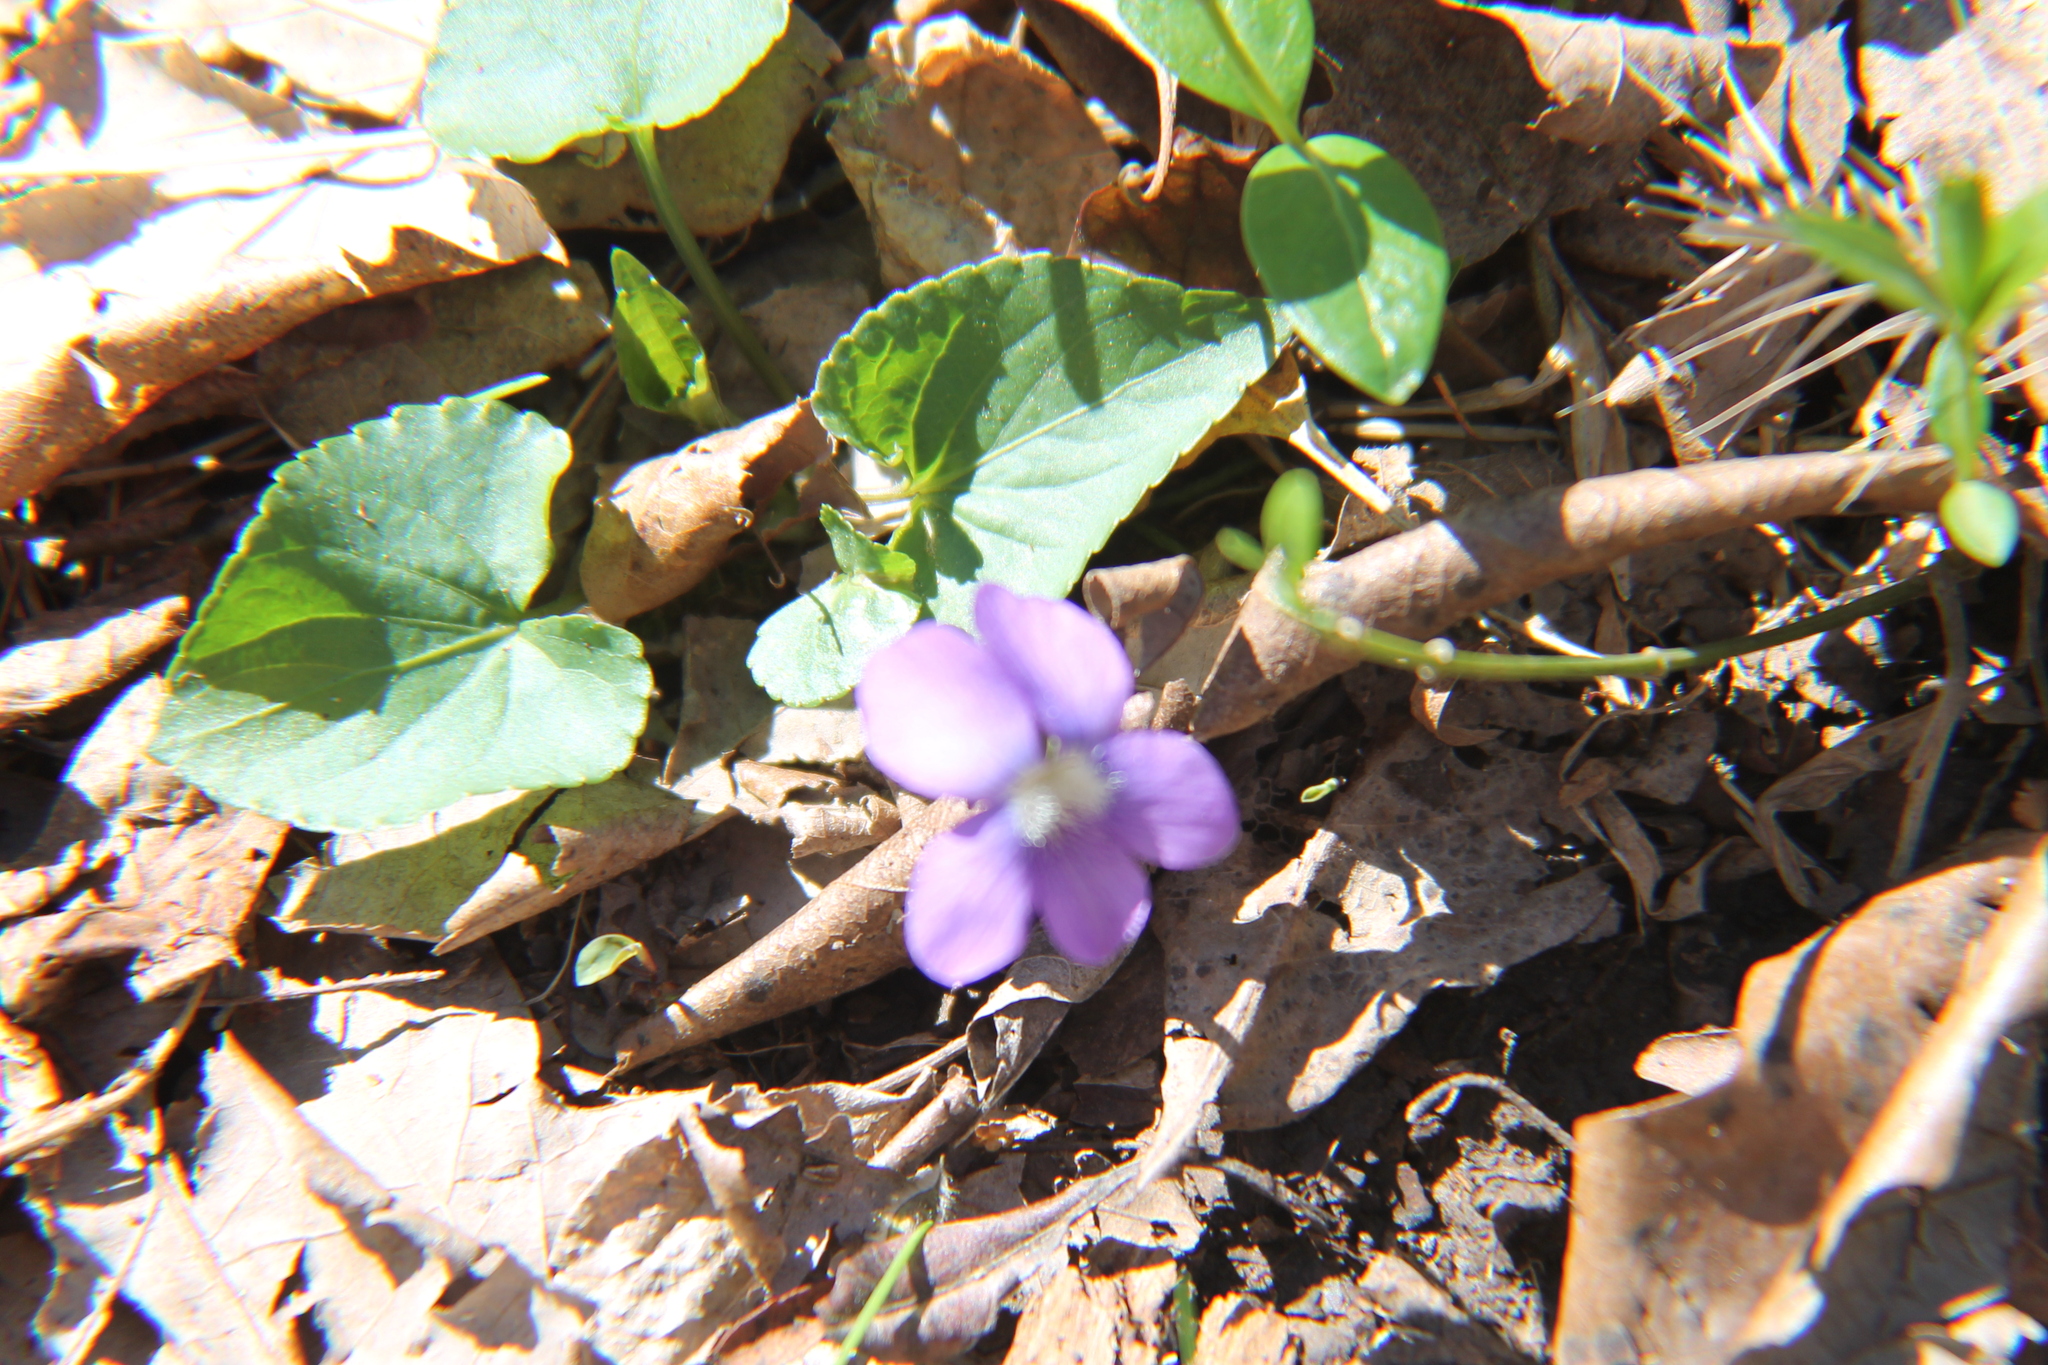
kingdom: Plantae
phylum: Tracheophyta
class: Magnoliopsida
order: Malpighiales
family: Violaceae
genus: Viola
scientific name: Viola missouriensis
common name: Missouri violet
